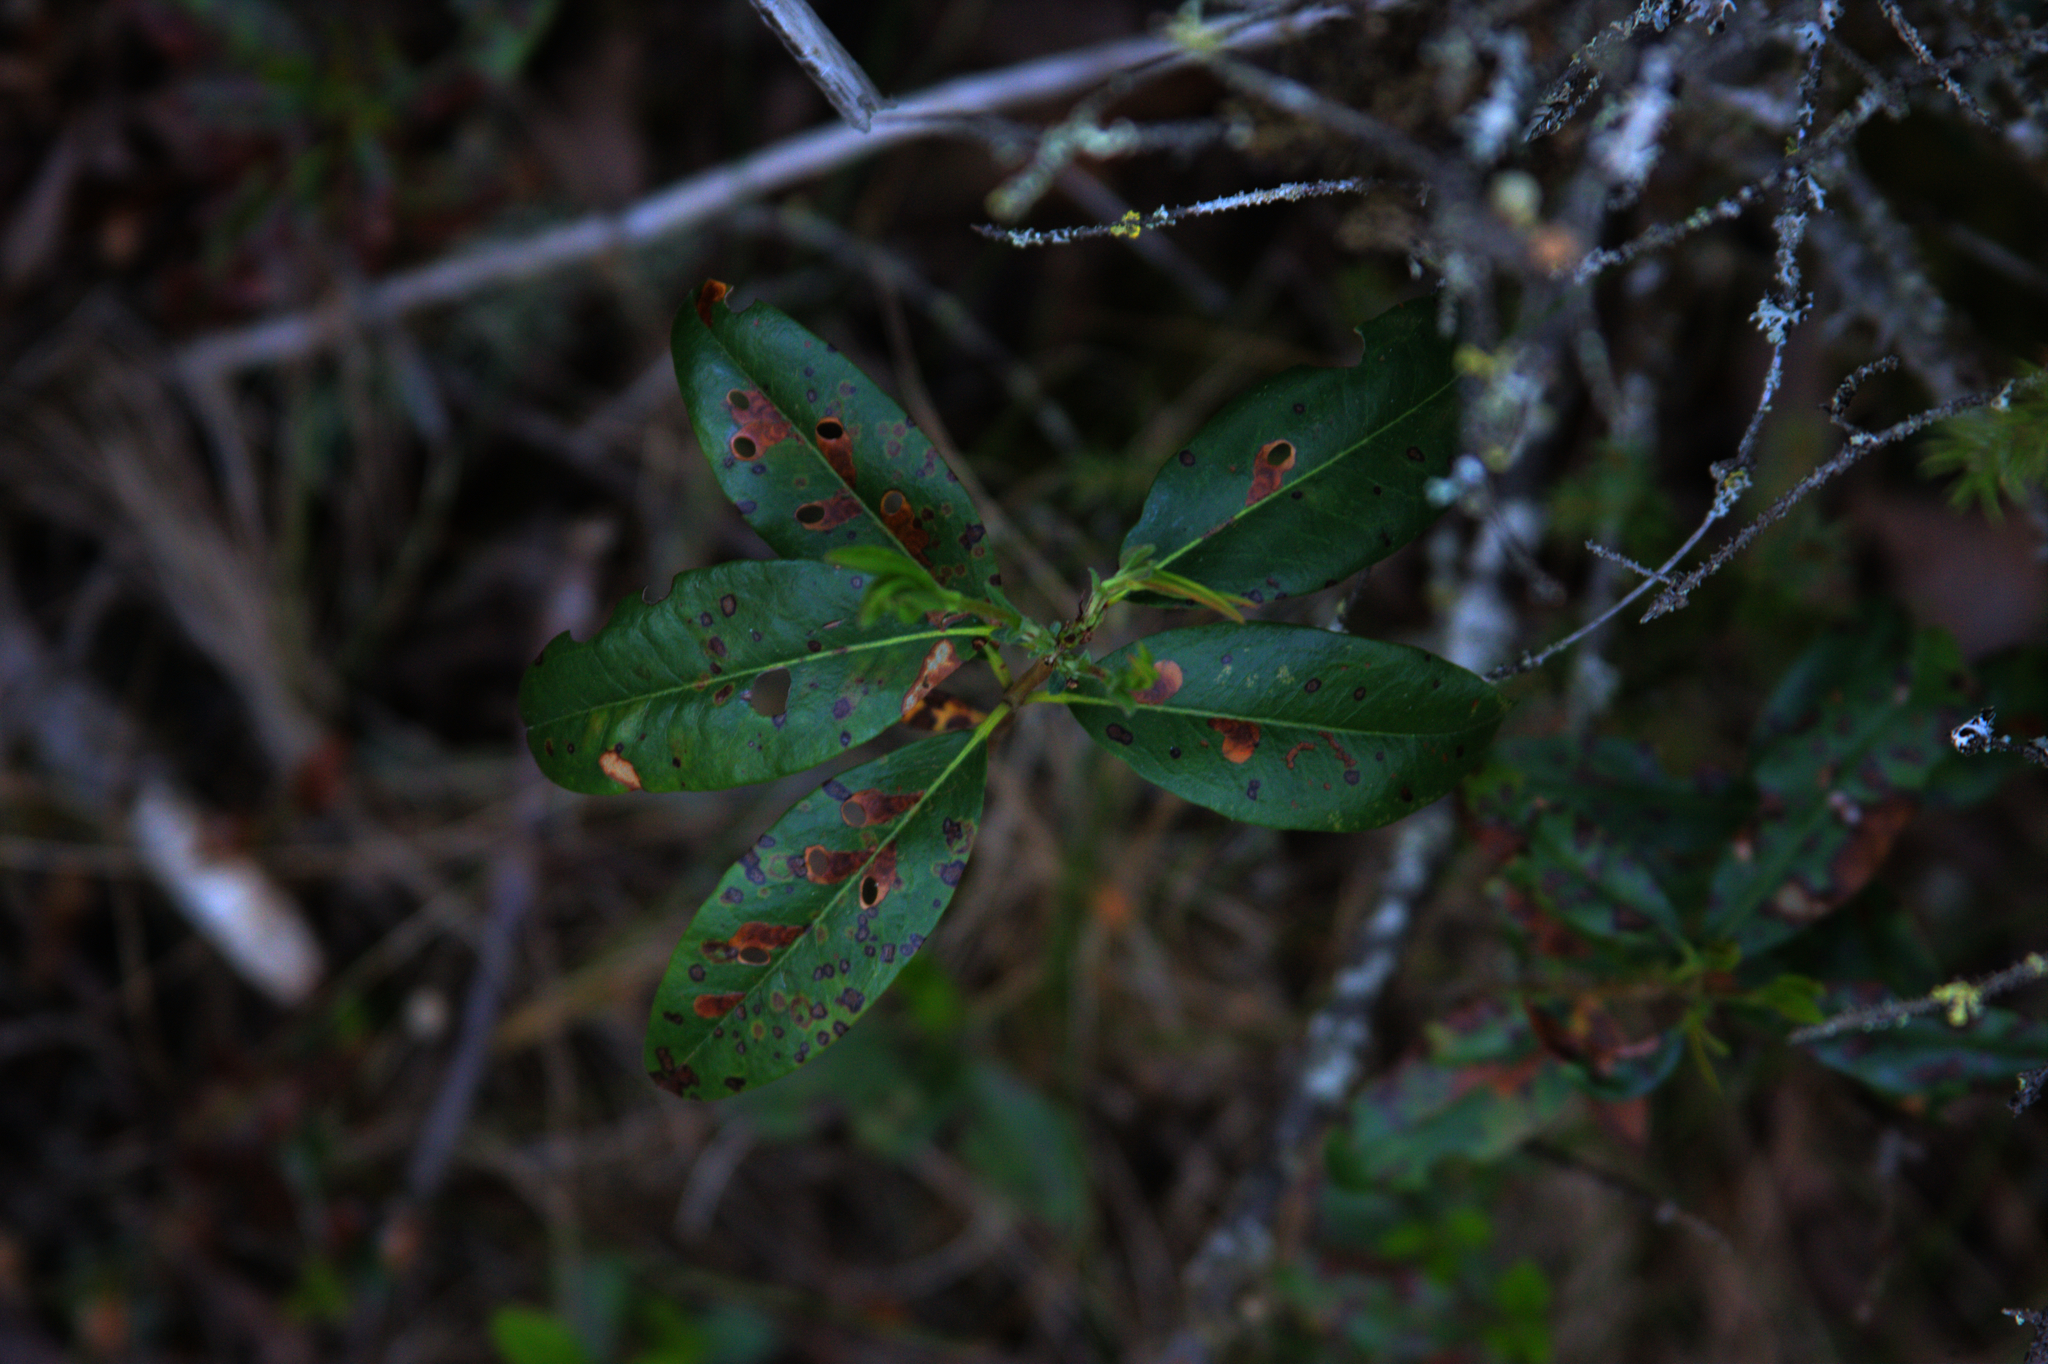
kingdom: Plantae
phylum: Tracheophyta
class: Magnoliopsida
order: Ericales
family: Ericaceae
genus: Kalmia
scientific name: Kalmia angustifolia
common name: Sheep-laurel
